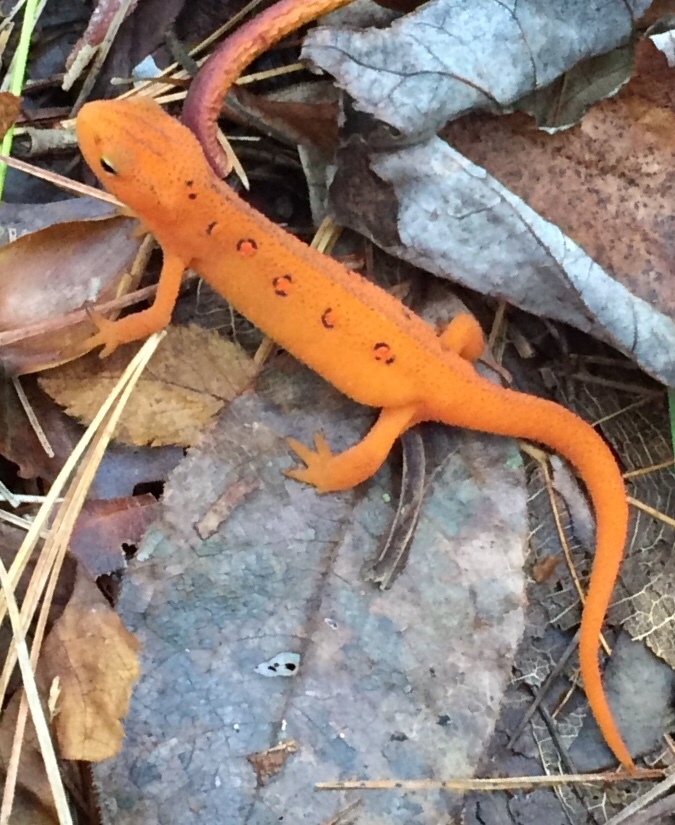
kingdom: Animalia
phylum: Chordata
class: Amphibia
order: Caudata
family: Salamandridae
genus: Notophthalmus
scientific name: Notophthalmus viridescens
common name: Eastern newt
